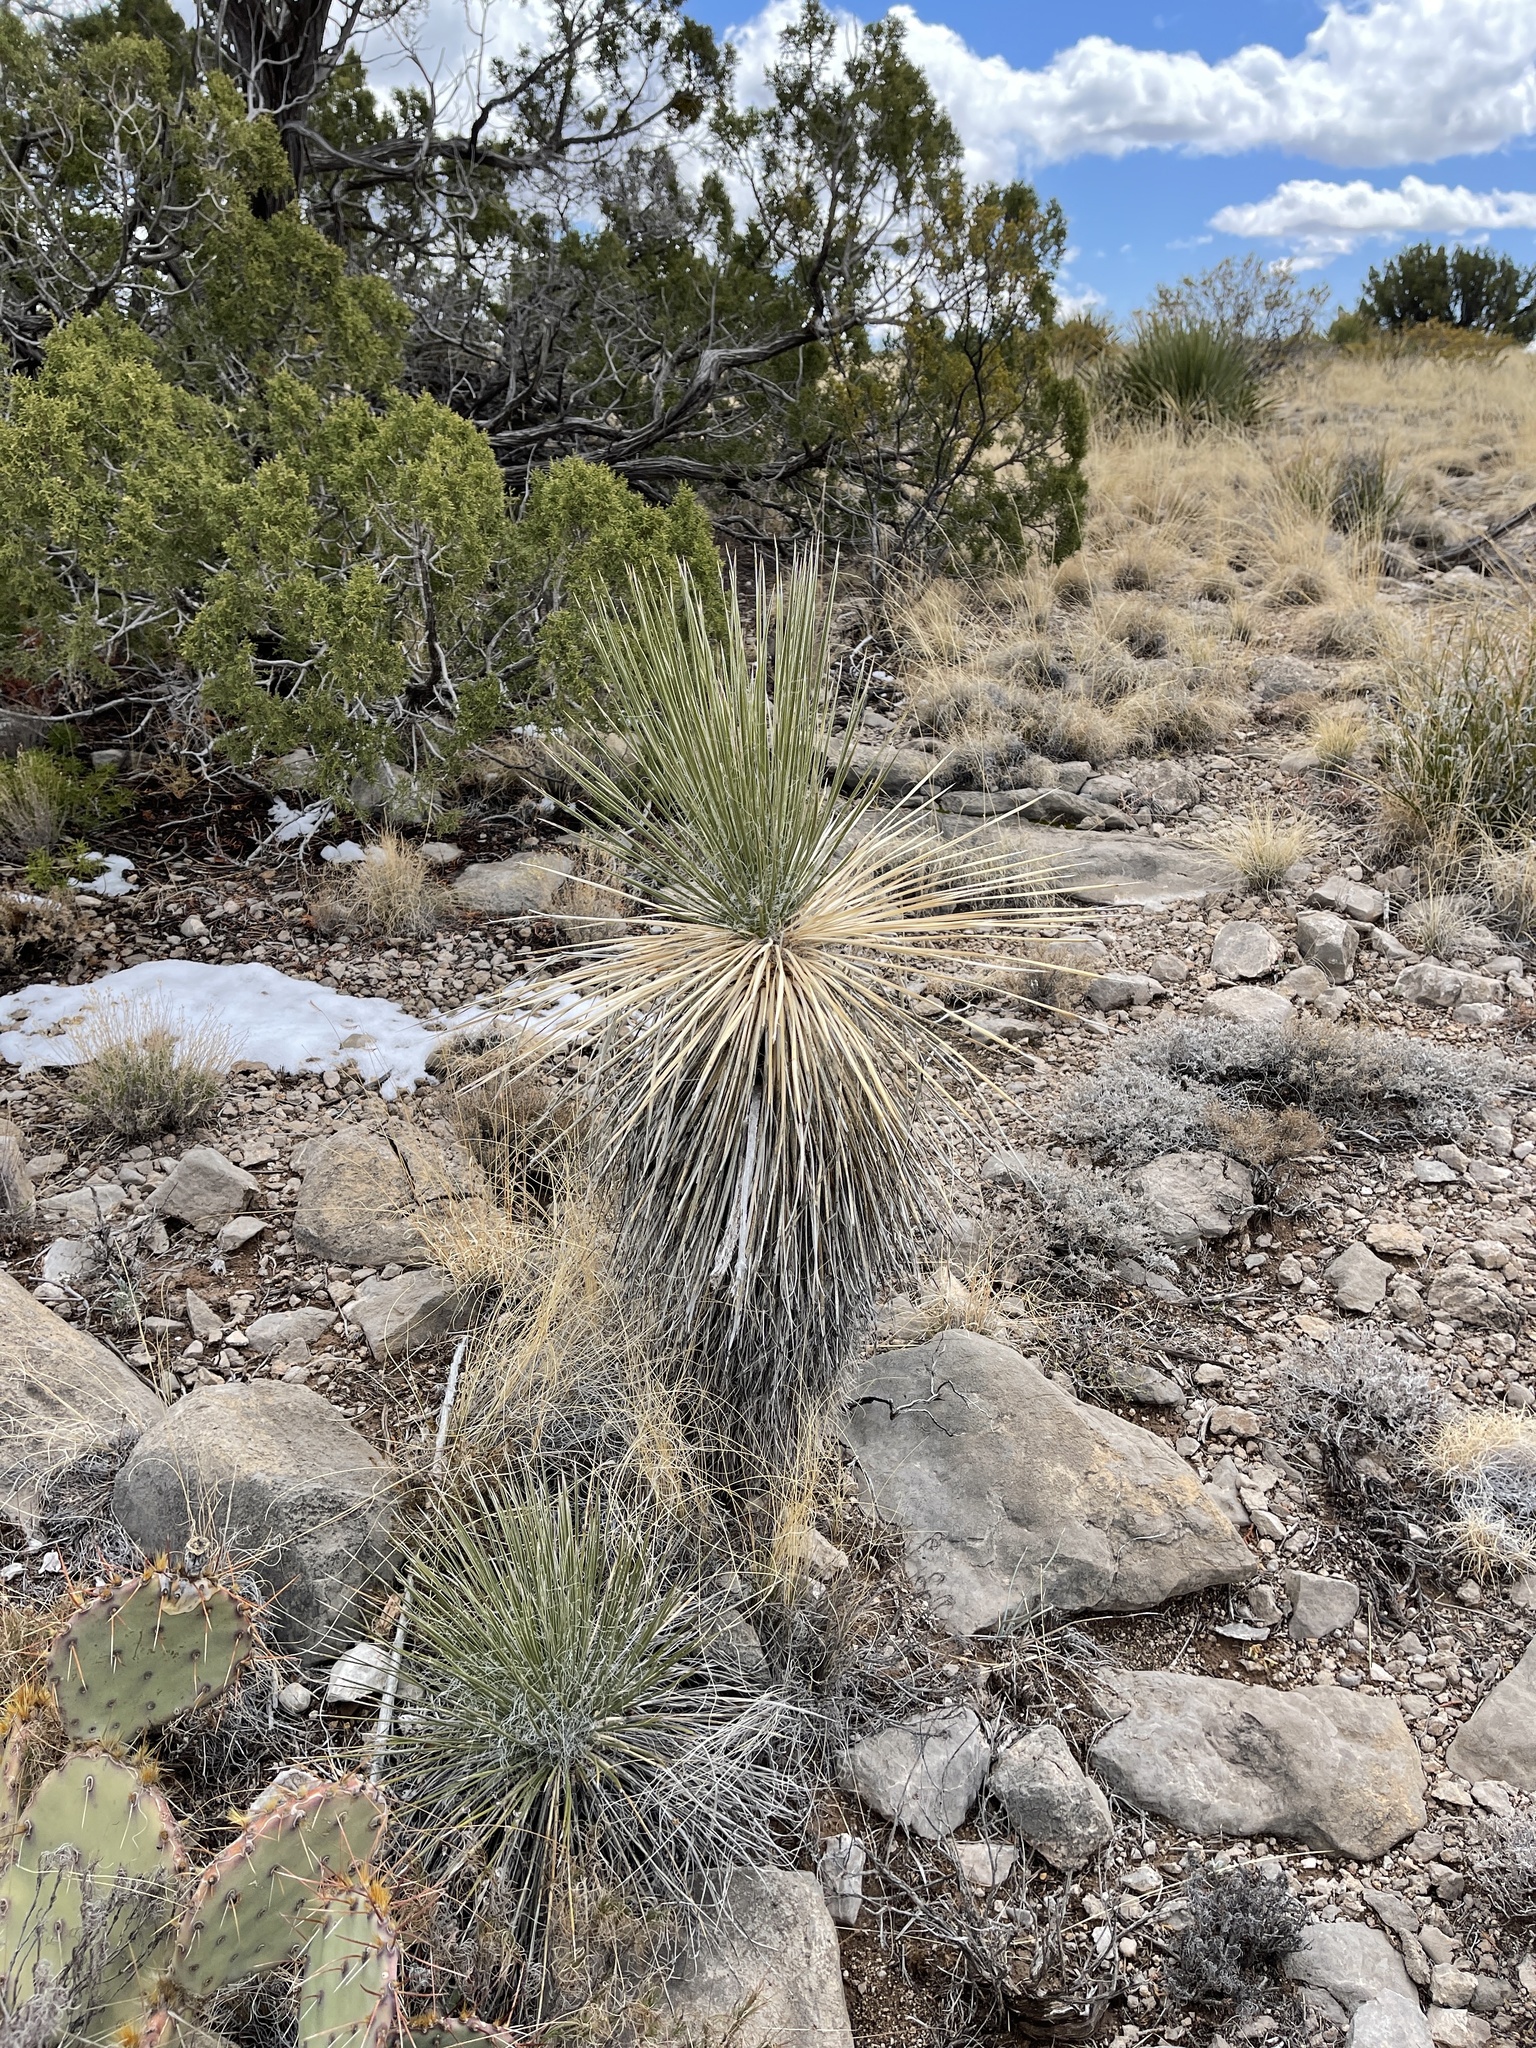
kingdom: Plantae
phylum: Tracheophyta
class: Liliopsida
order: Asparagales
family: Asparagaceae
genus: Yucca
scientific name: Yucca elata
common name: Palmella
